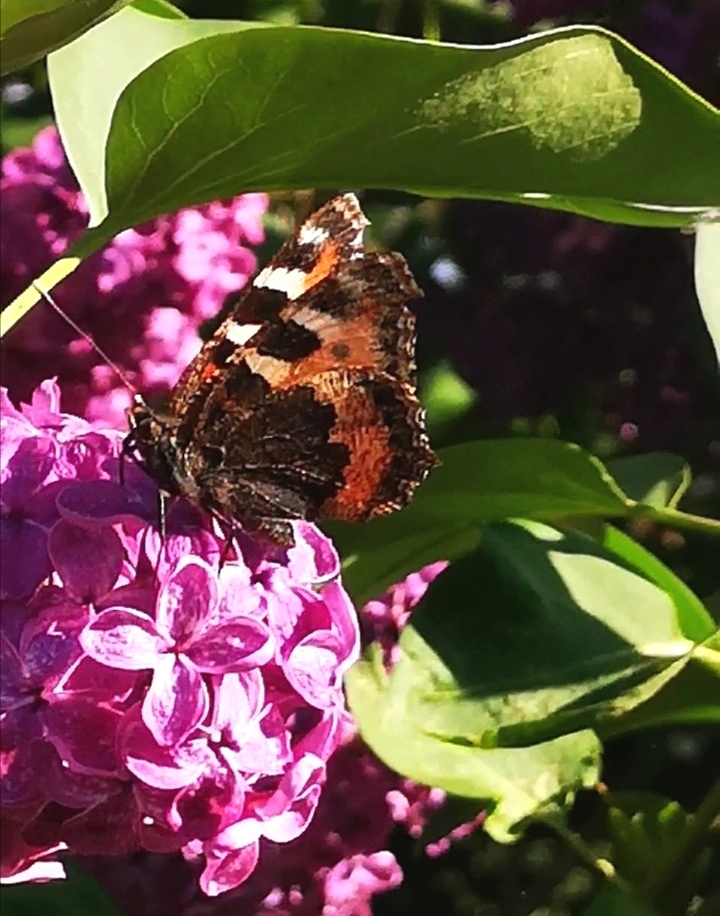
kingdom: Animalia
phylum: Arthropoda
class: Insecta
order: Lepidoptera
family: Nymphalidae
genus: Aglais
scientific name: Aglais urticae
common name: Small tortoiseshell
